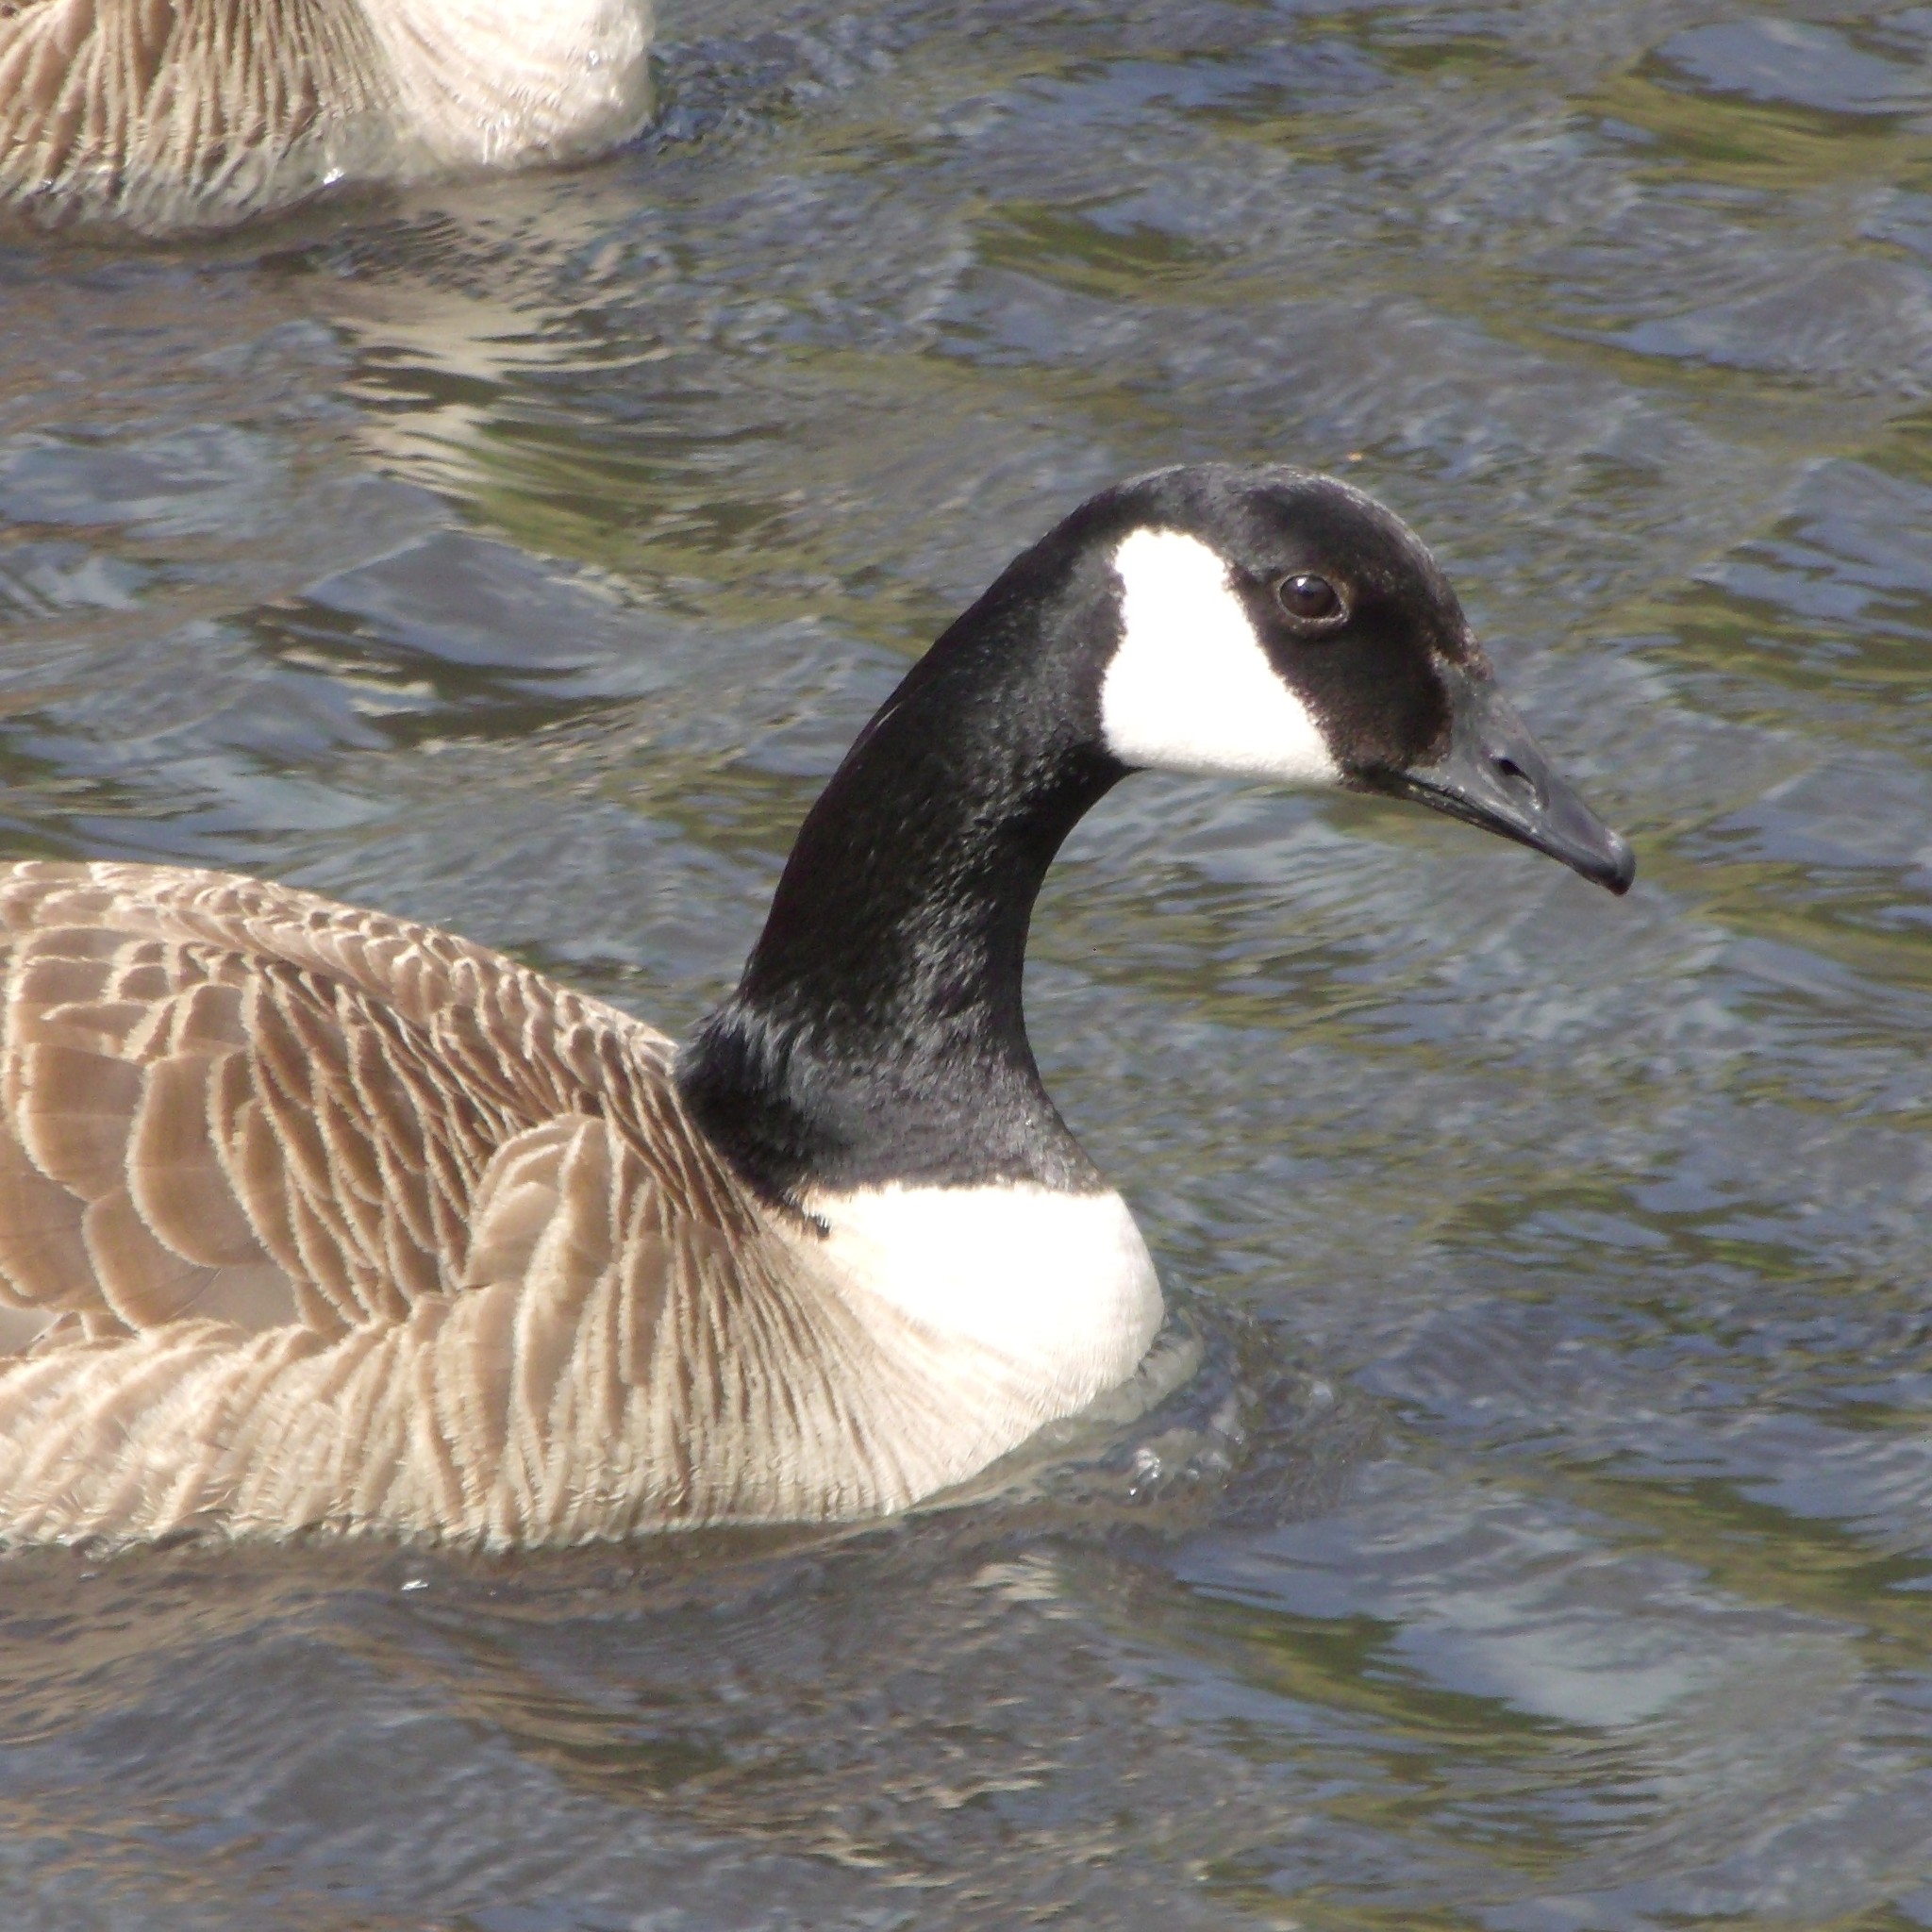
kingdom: Animalia
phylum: Chordata
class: Aves
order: Anseriformes
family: Anatidae
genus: Branta
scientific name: Branta canadensis
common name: Canada goose
